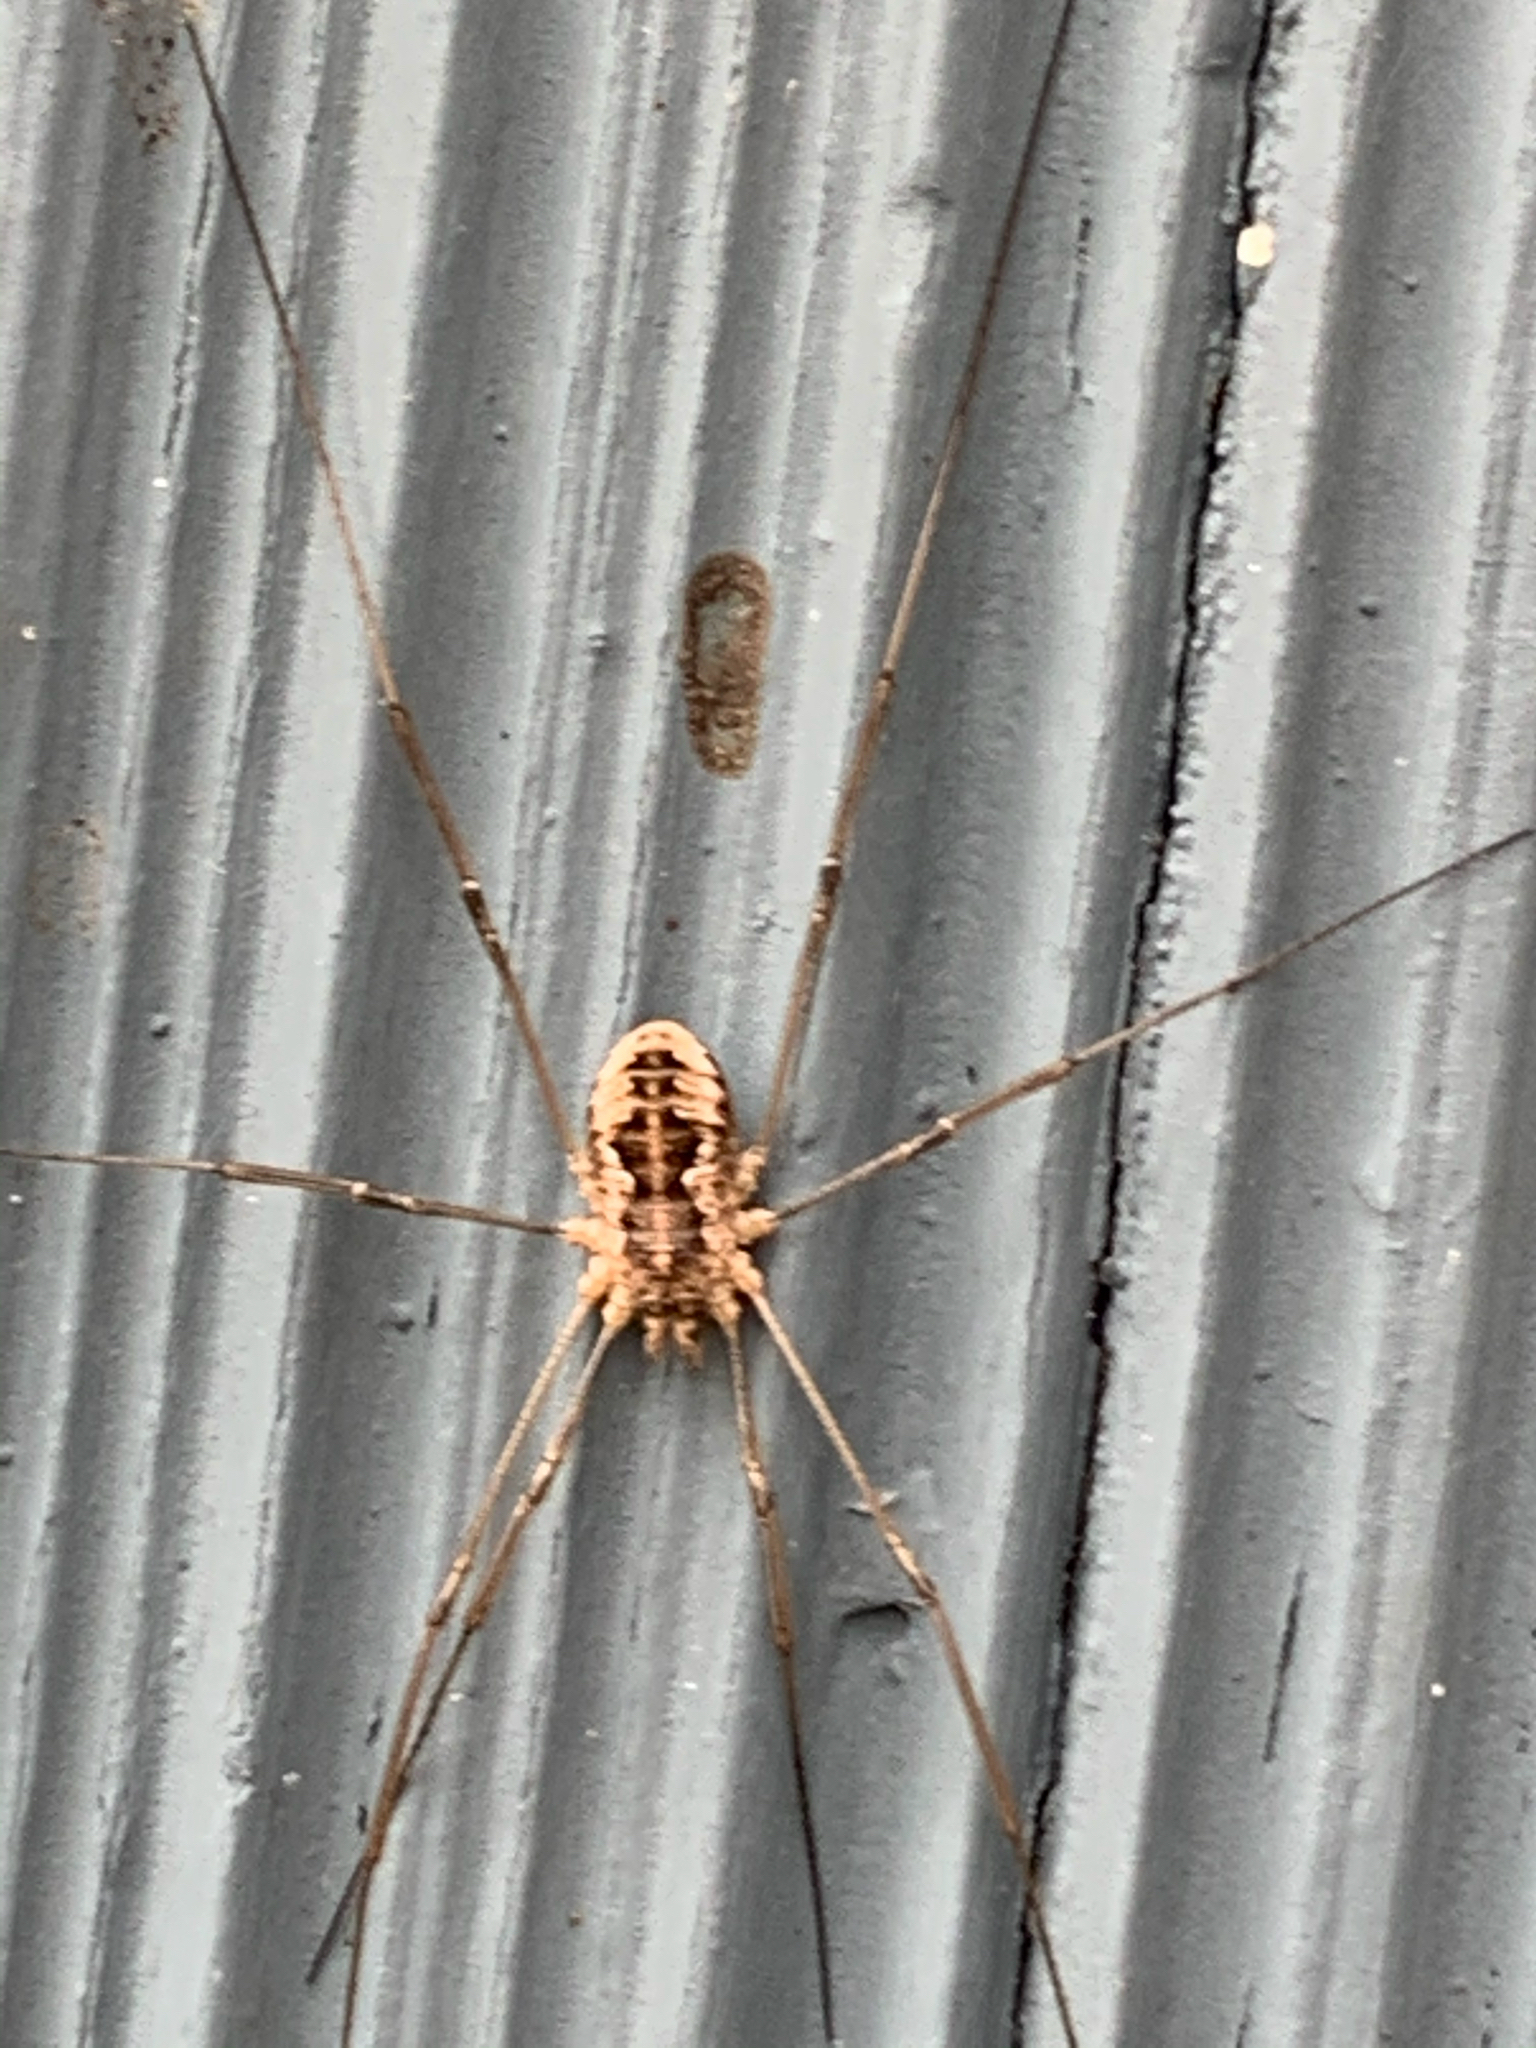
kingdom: Animalia
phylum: Arthropoda
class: Arachnida
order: Opiliones
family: Phalangiidae
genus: Phalangium
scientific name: Phalangium opilio
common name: Daddy longleg
